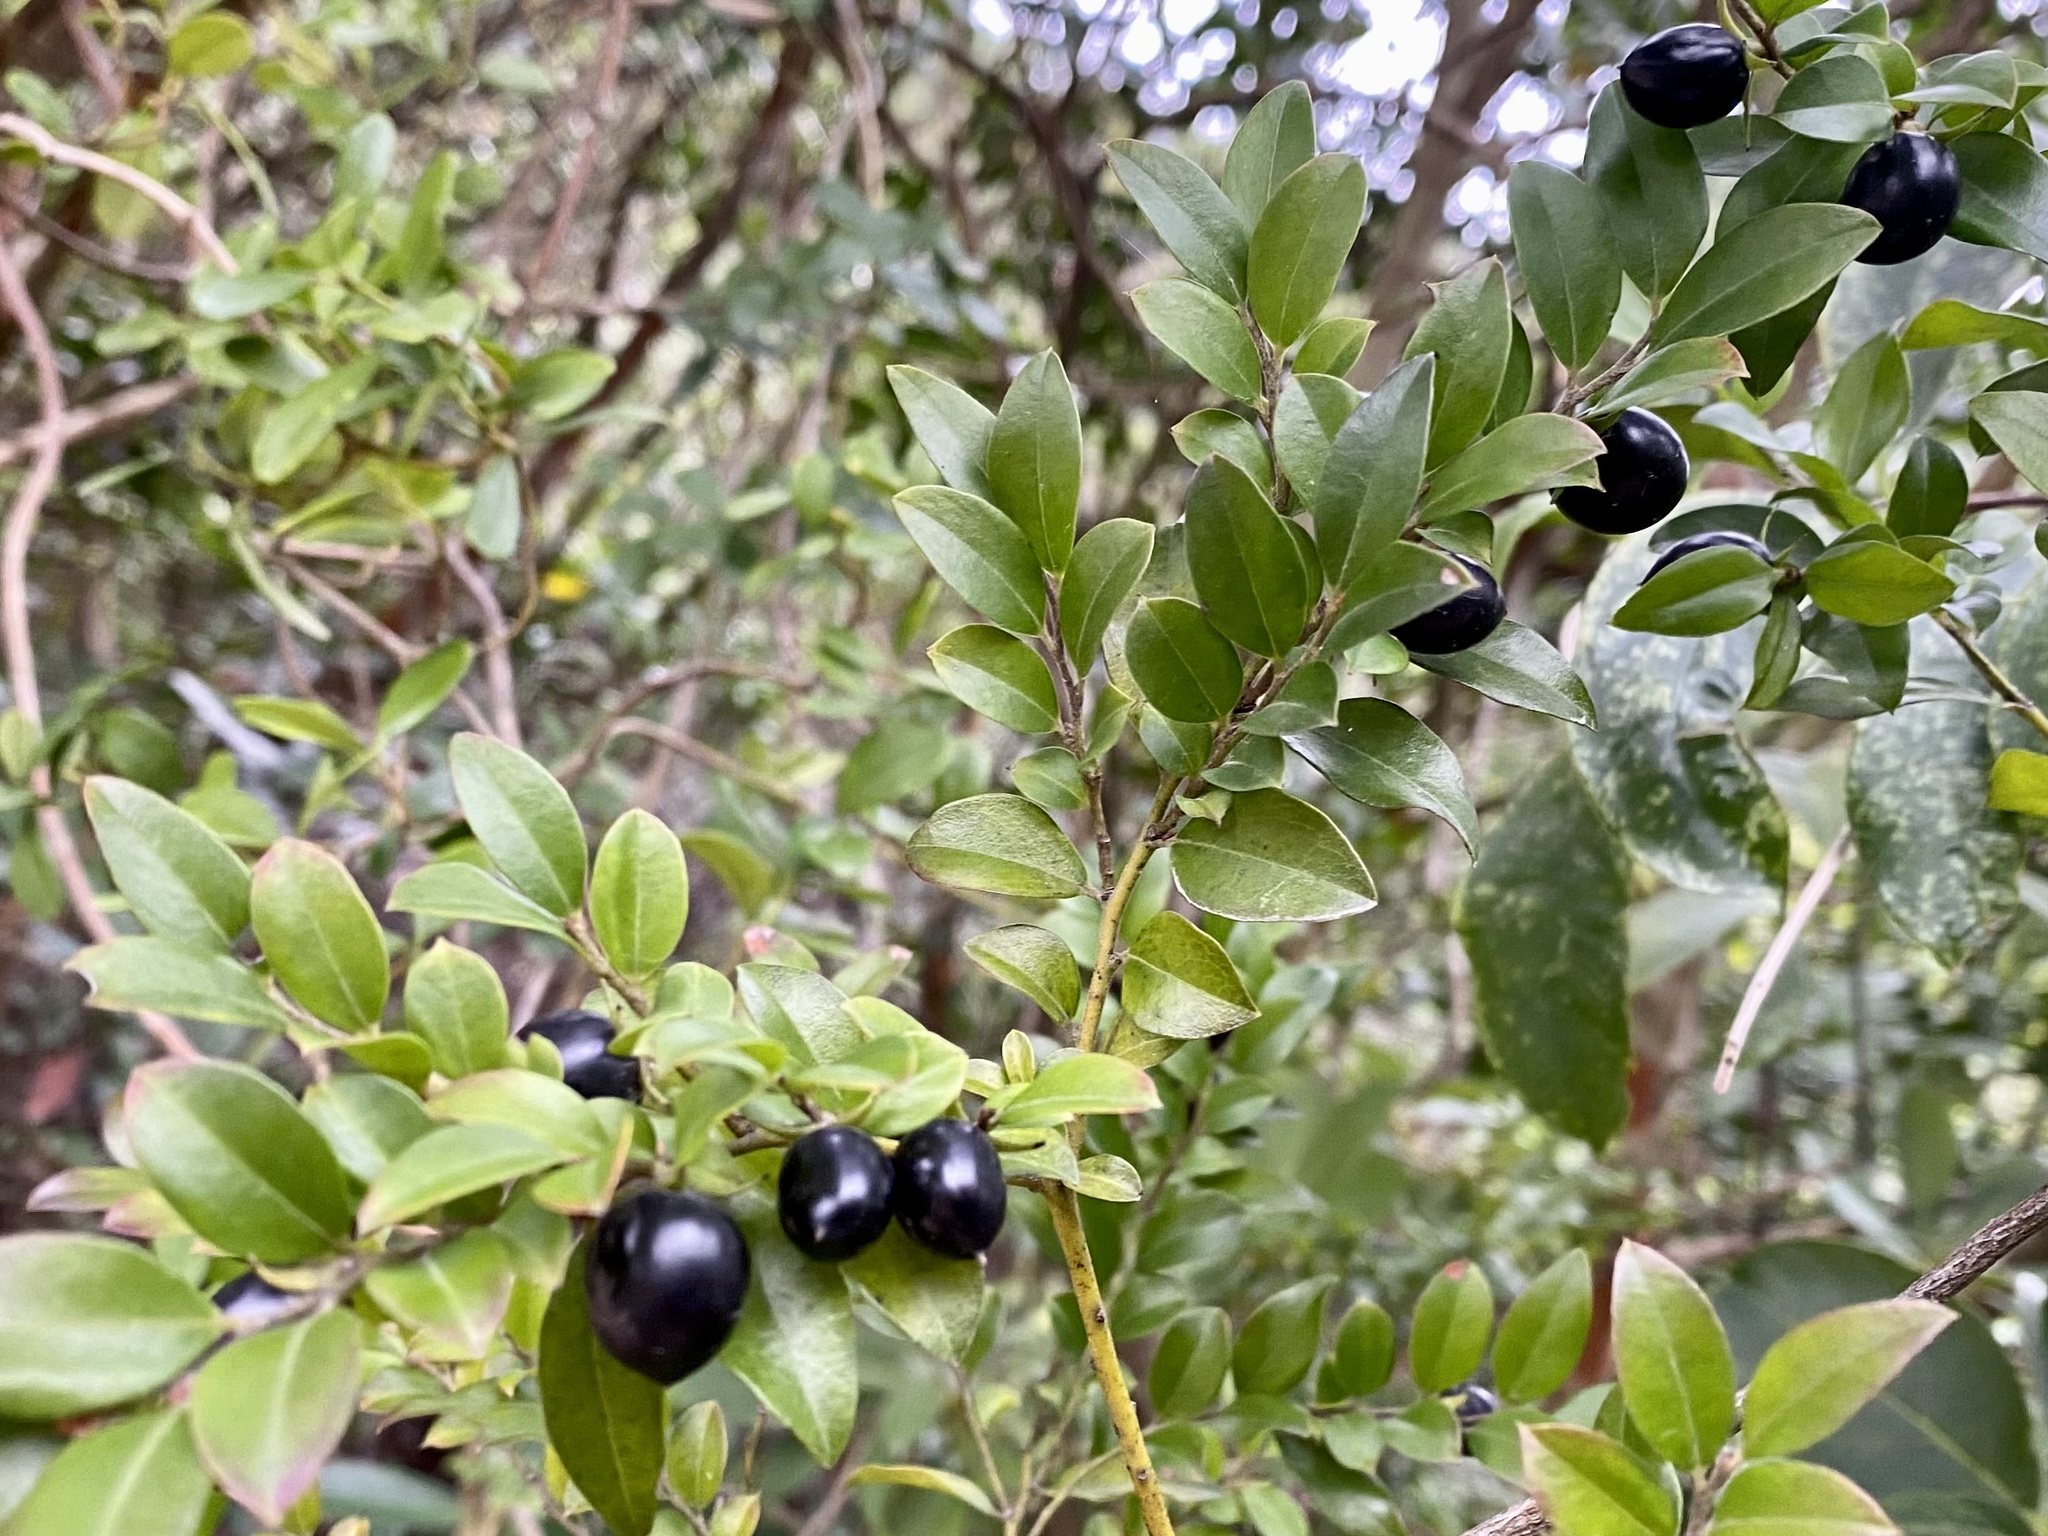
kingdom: Plantae
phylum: Tracheophyta
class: Magnoliopsida
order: Ericales
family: Ebenaceae
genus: Diospyros
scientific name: Diospyros vaccinioides
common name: Small persimmon
